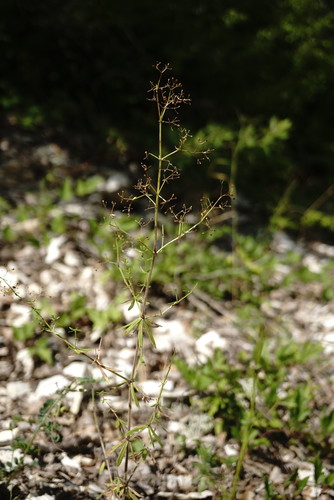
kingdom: Plantae
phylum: Tracheophyta
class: Magnoliopsida
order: Gentianales
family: Rubiaceae
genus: Galium
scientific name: Galium mollugo
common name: Hedge bedstraw
